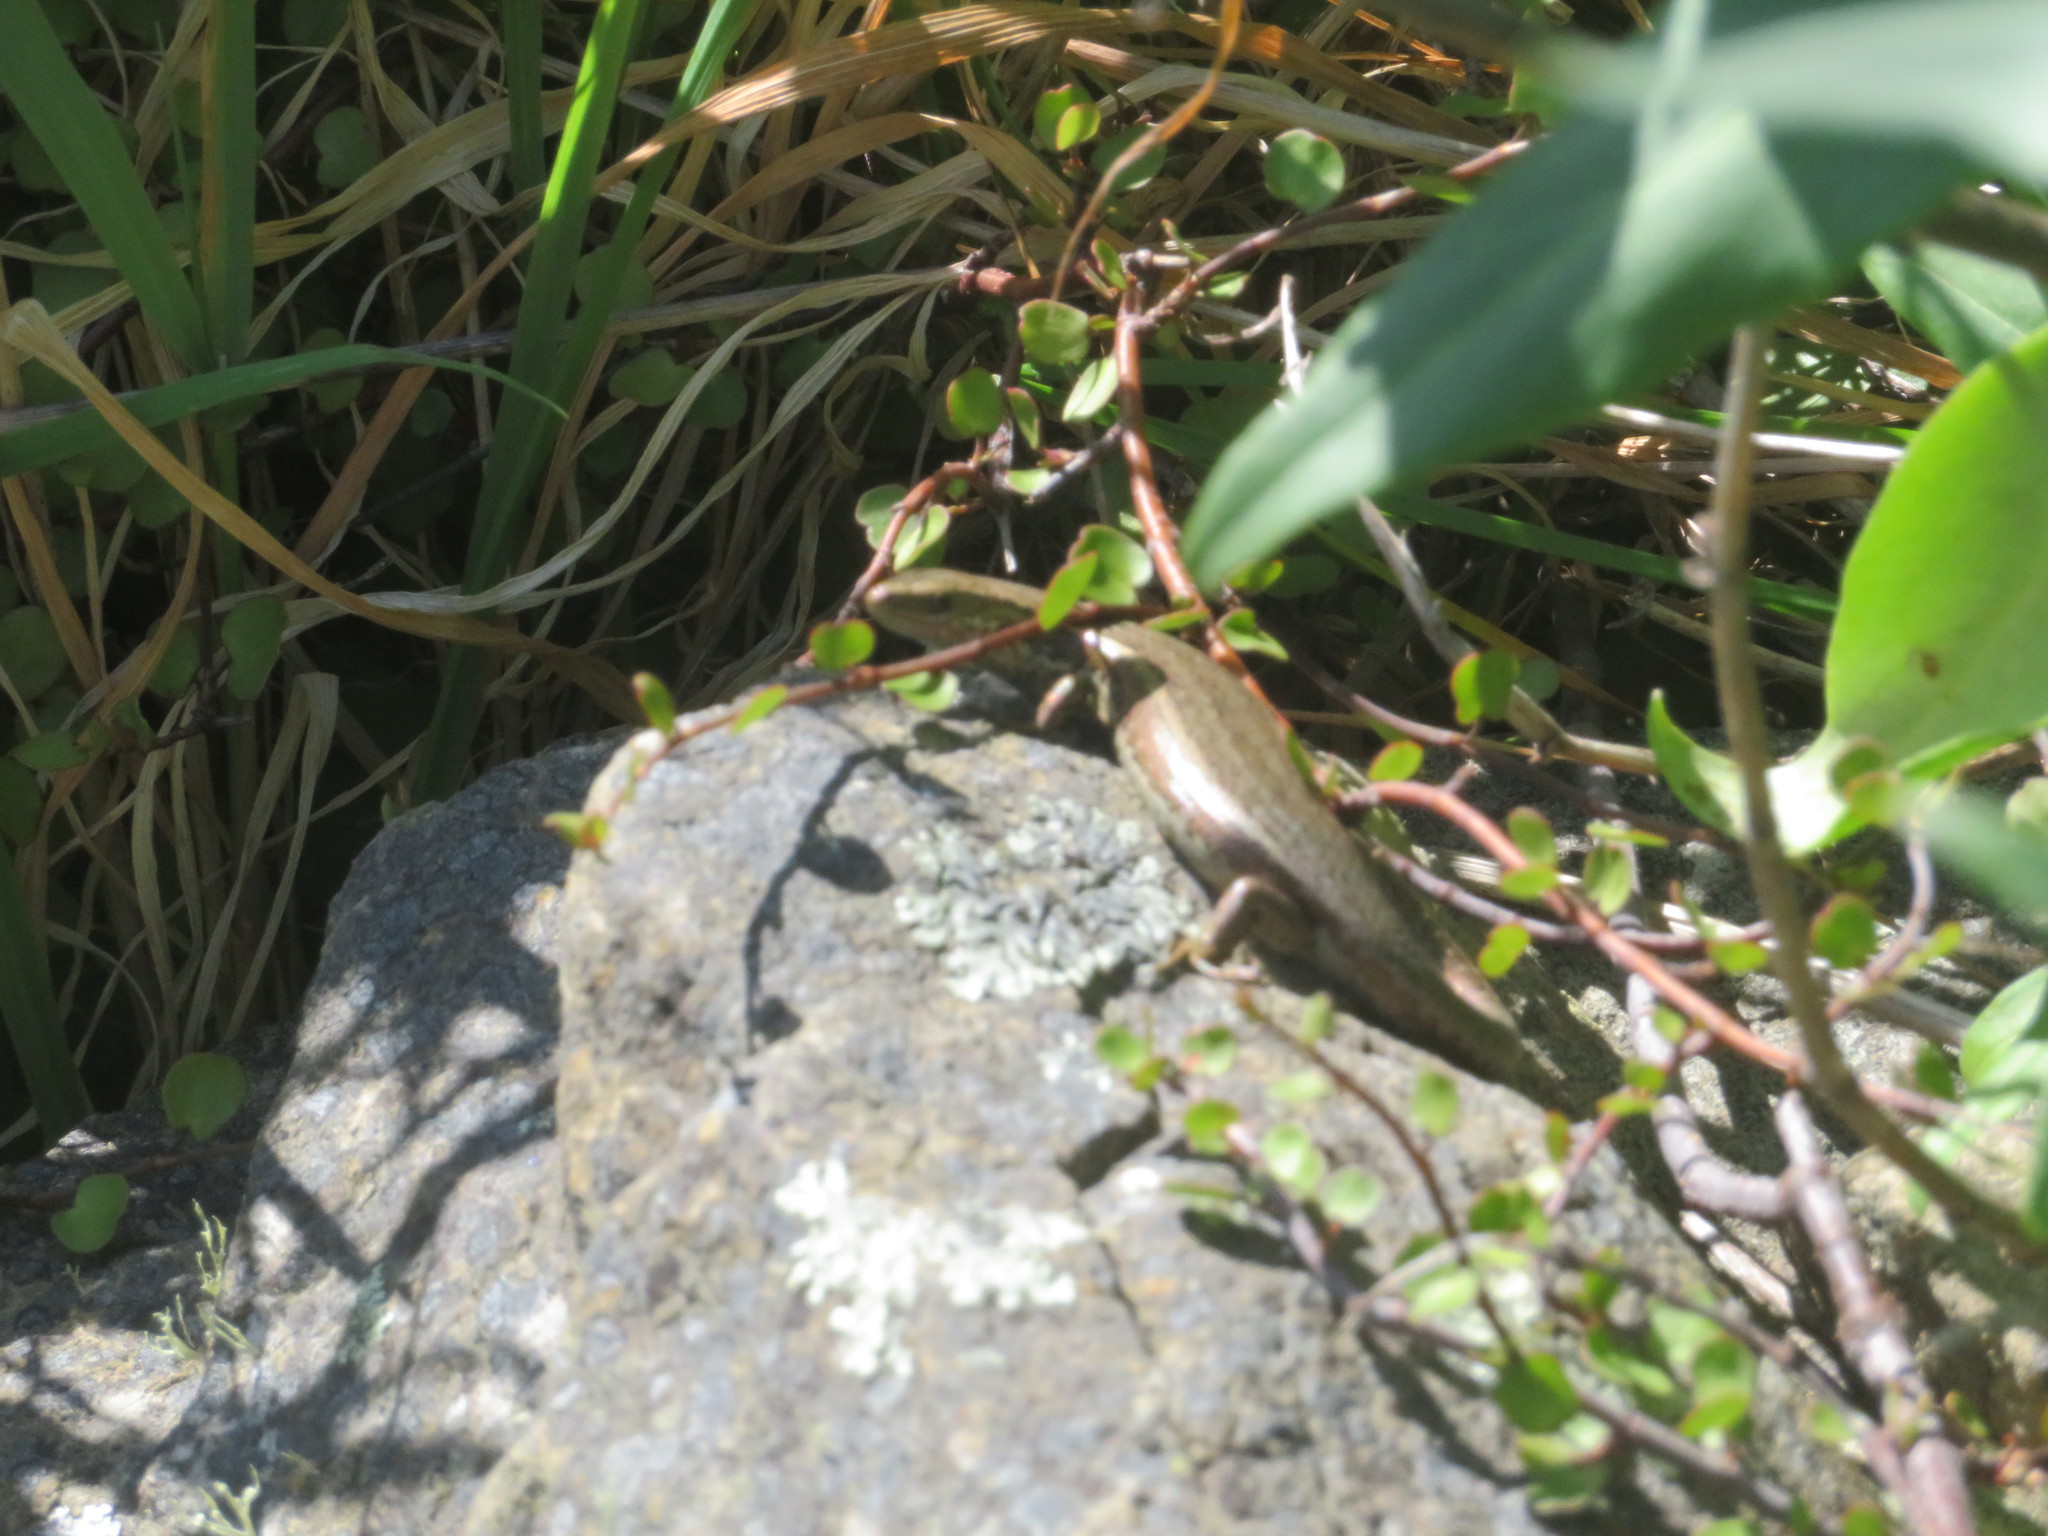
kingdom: Animalia
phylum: Chordata
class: Squamata
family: Scincidae
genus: Oligosoma
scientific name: Oligosoma polychroma
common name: Common new zealand skink
